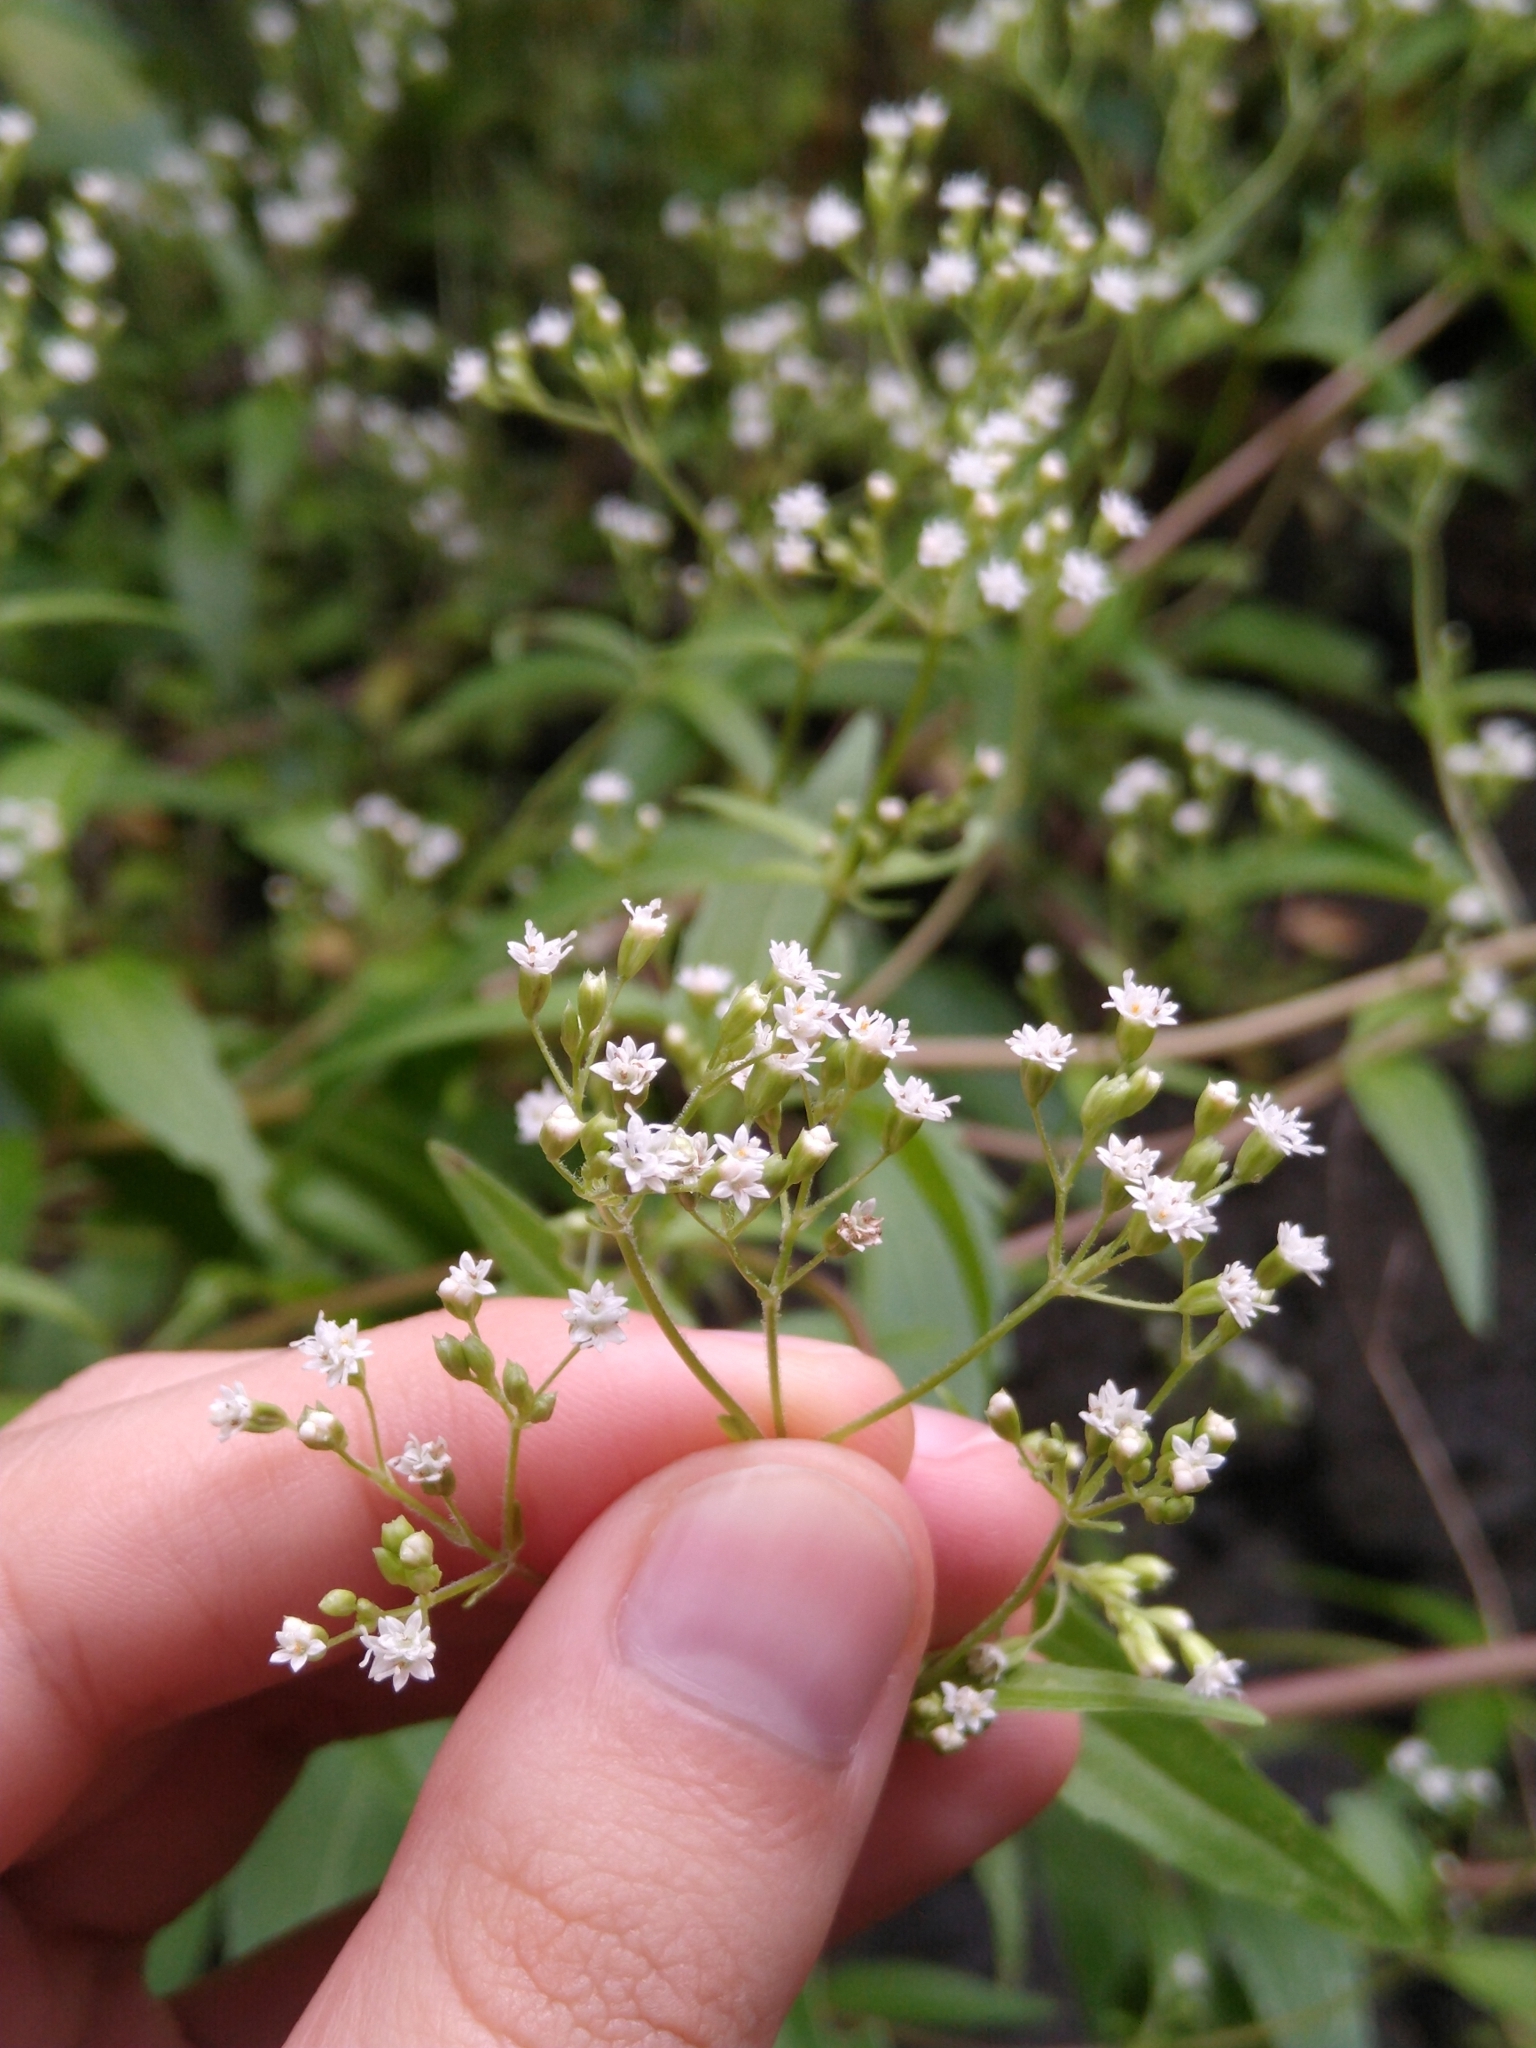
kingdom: Plantae
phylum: Tracheophyta
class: Magnoliopsida
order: Asterales
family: Asteraceae
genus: Piqueria
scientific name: Piqueria trinervia
